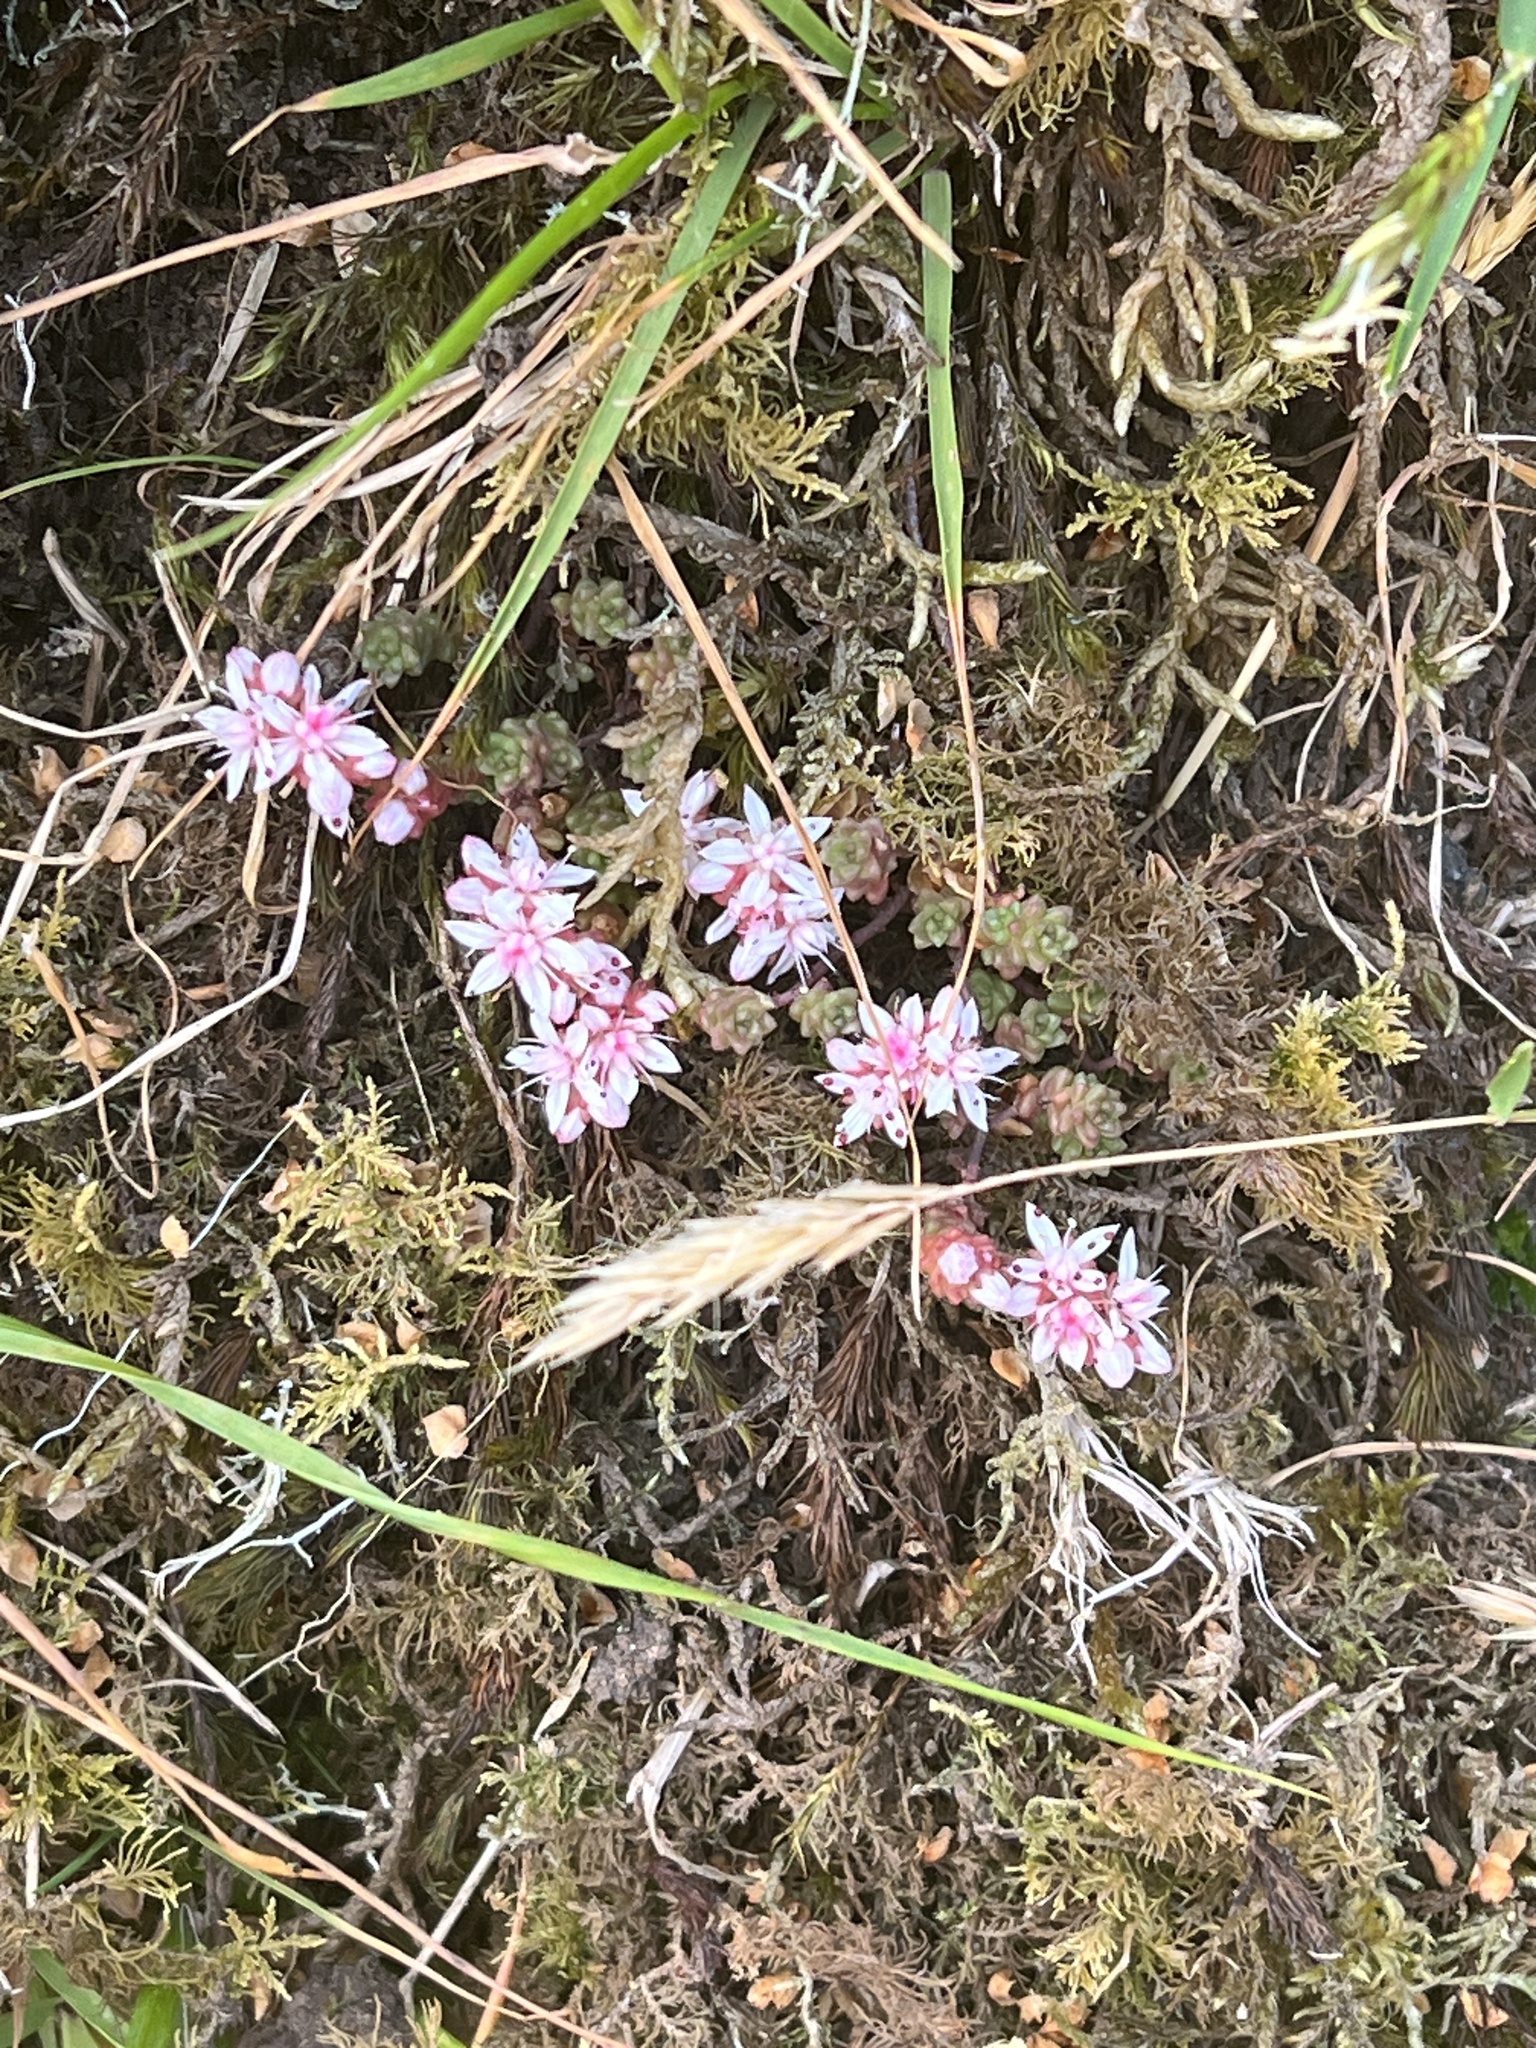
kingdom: Plantae
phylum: Tracheophyta
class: Magnoliopsida
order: Saxifragales
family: Crassulaceae
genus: Sedum
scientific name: Sedum anglicum
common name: English stonecrop
